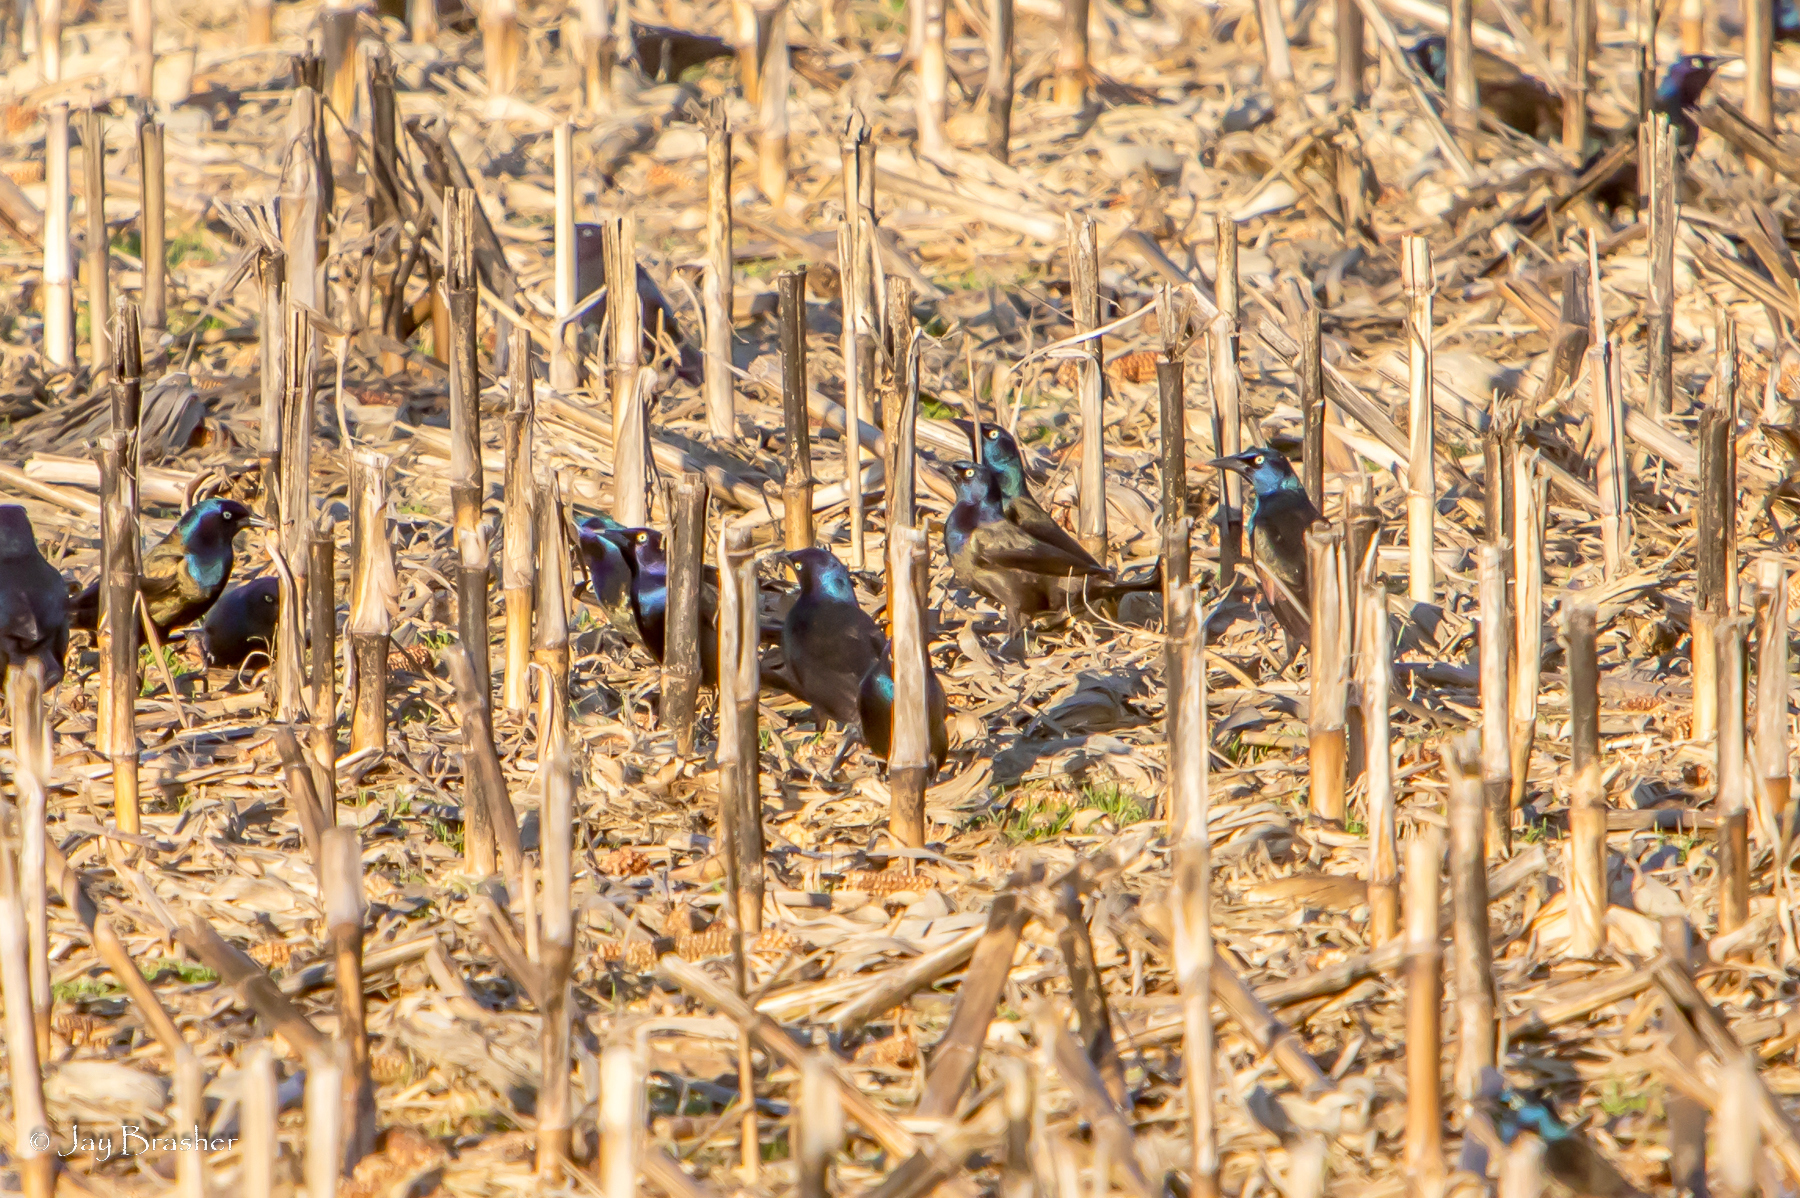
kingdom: Animalia
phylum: Chordata
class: Aves
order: Passeriformes
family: Icteridae
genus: Quiscalus
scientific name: Quiscalus quiscula
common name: Common grackle
